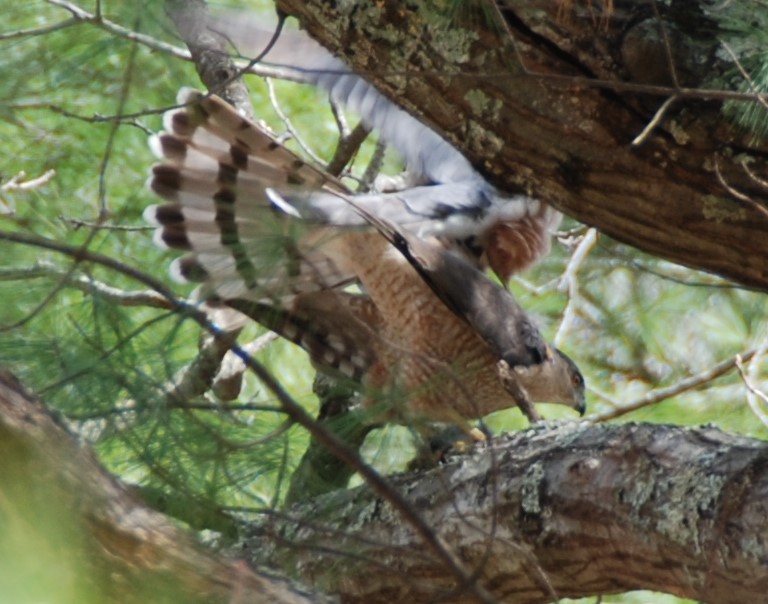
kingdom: Animalia
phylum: Chordata
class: Aves
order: Accipitriformes
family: Accipitridae
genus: Accipiter
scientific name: Accipiter cooperii
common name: Cooper's hawk
